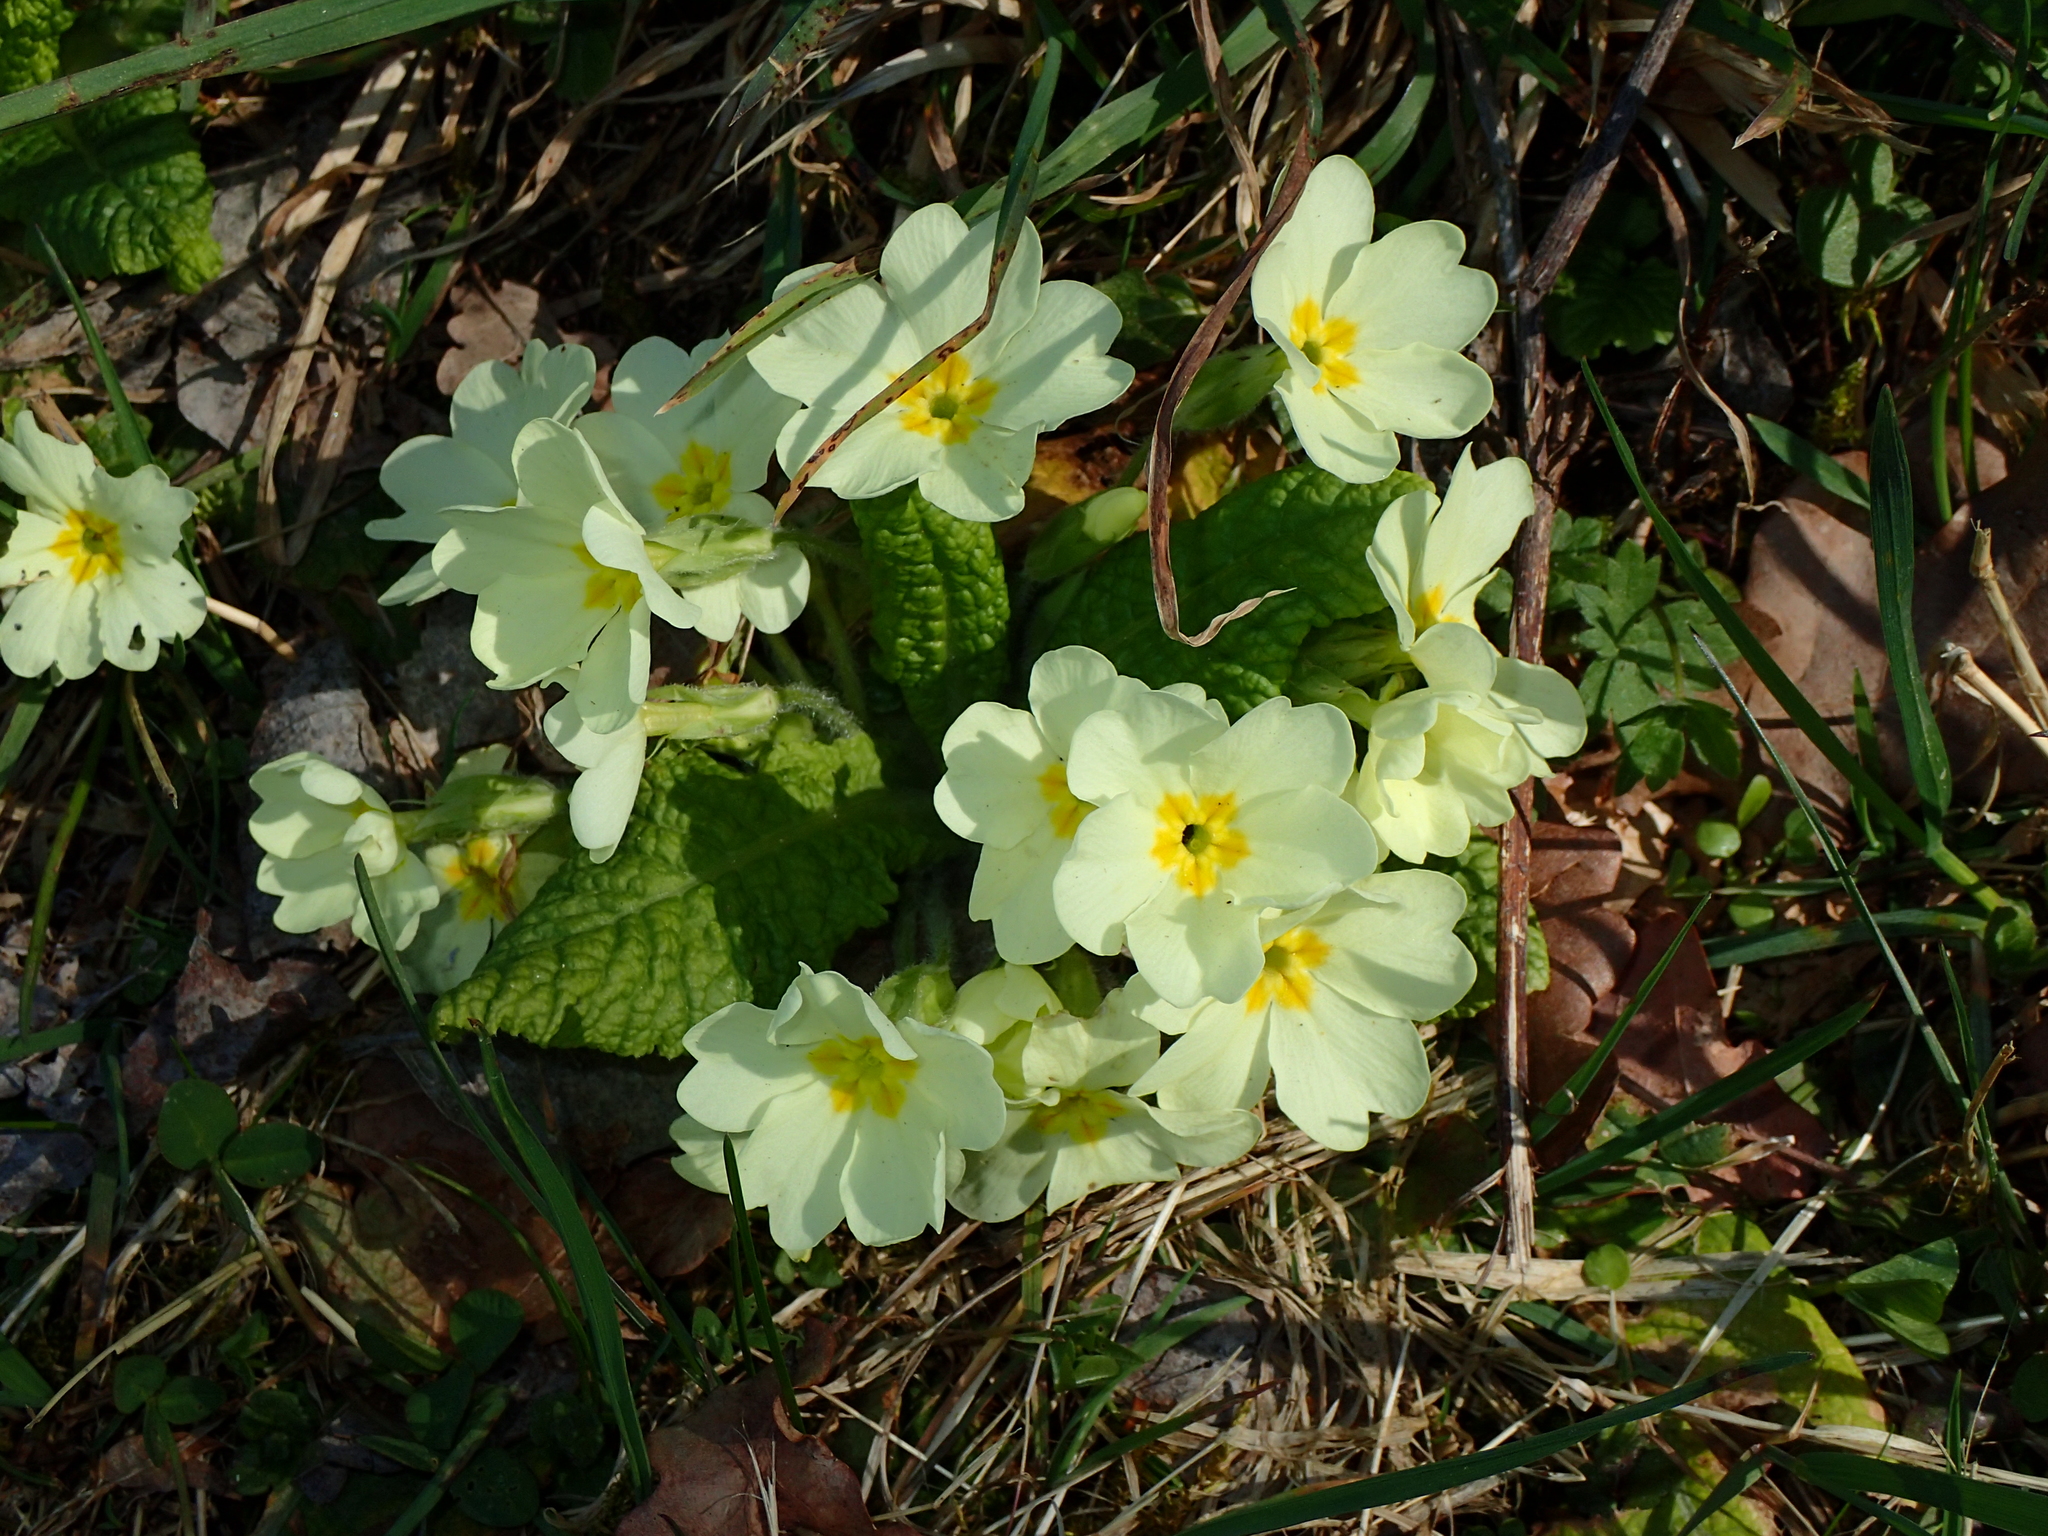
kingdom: Plantae
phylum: Tracheophyta
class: Magnoliopsida
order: Ericales
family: Primulaceae
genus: Primula
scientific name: Primula vulgaris
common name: Primrose
